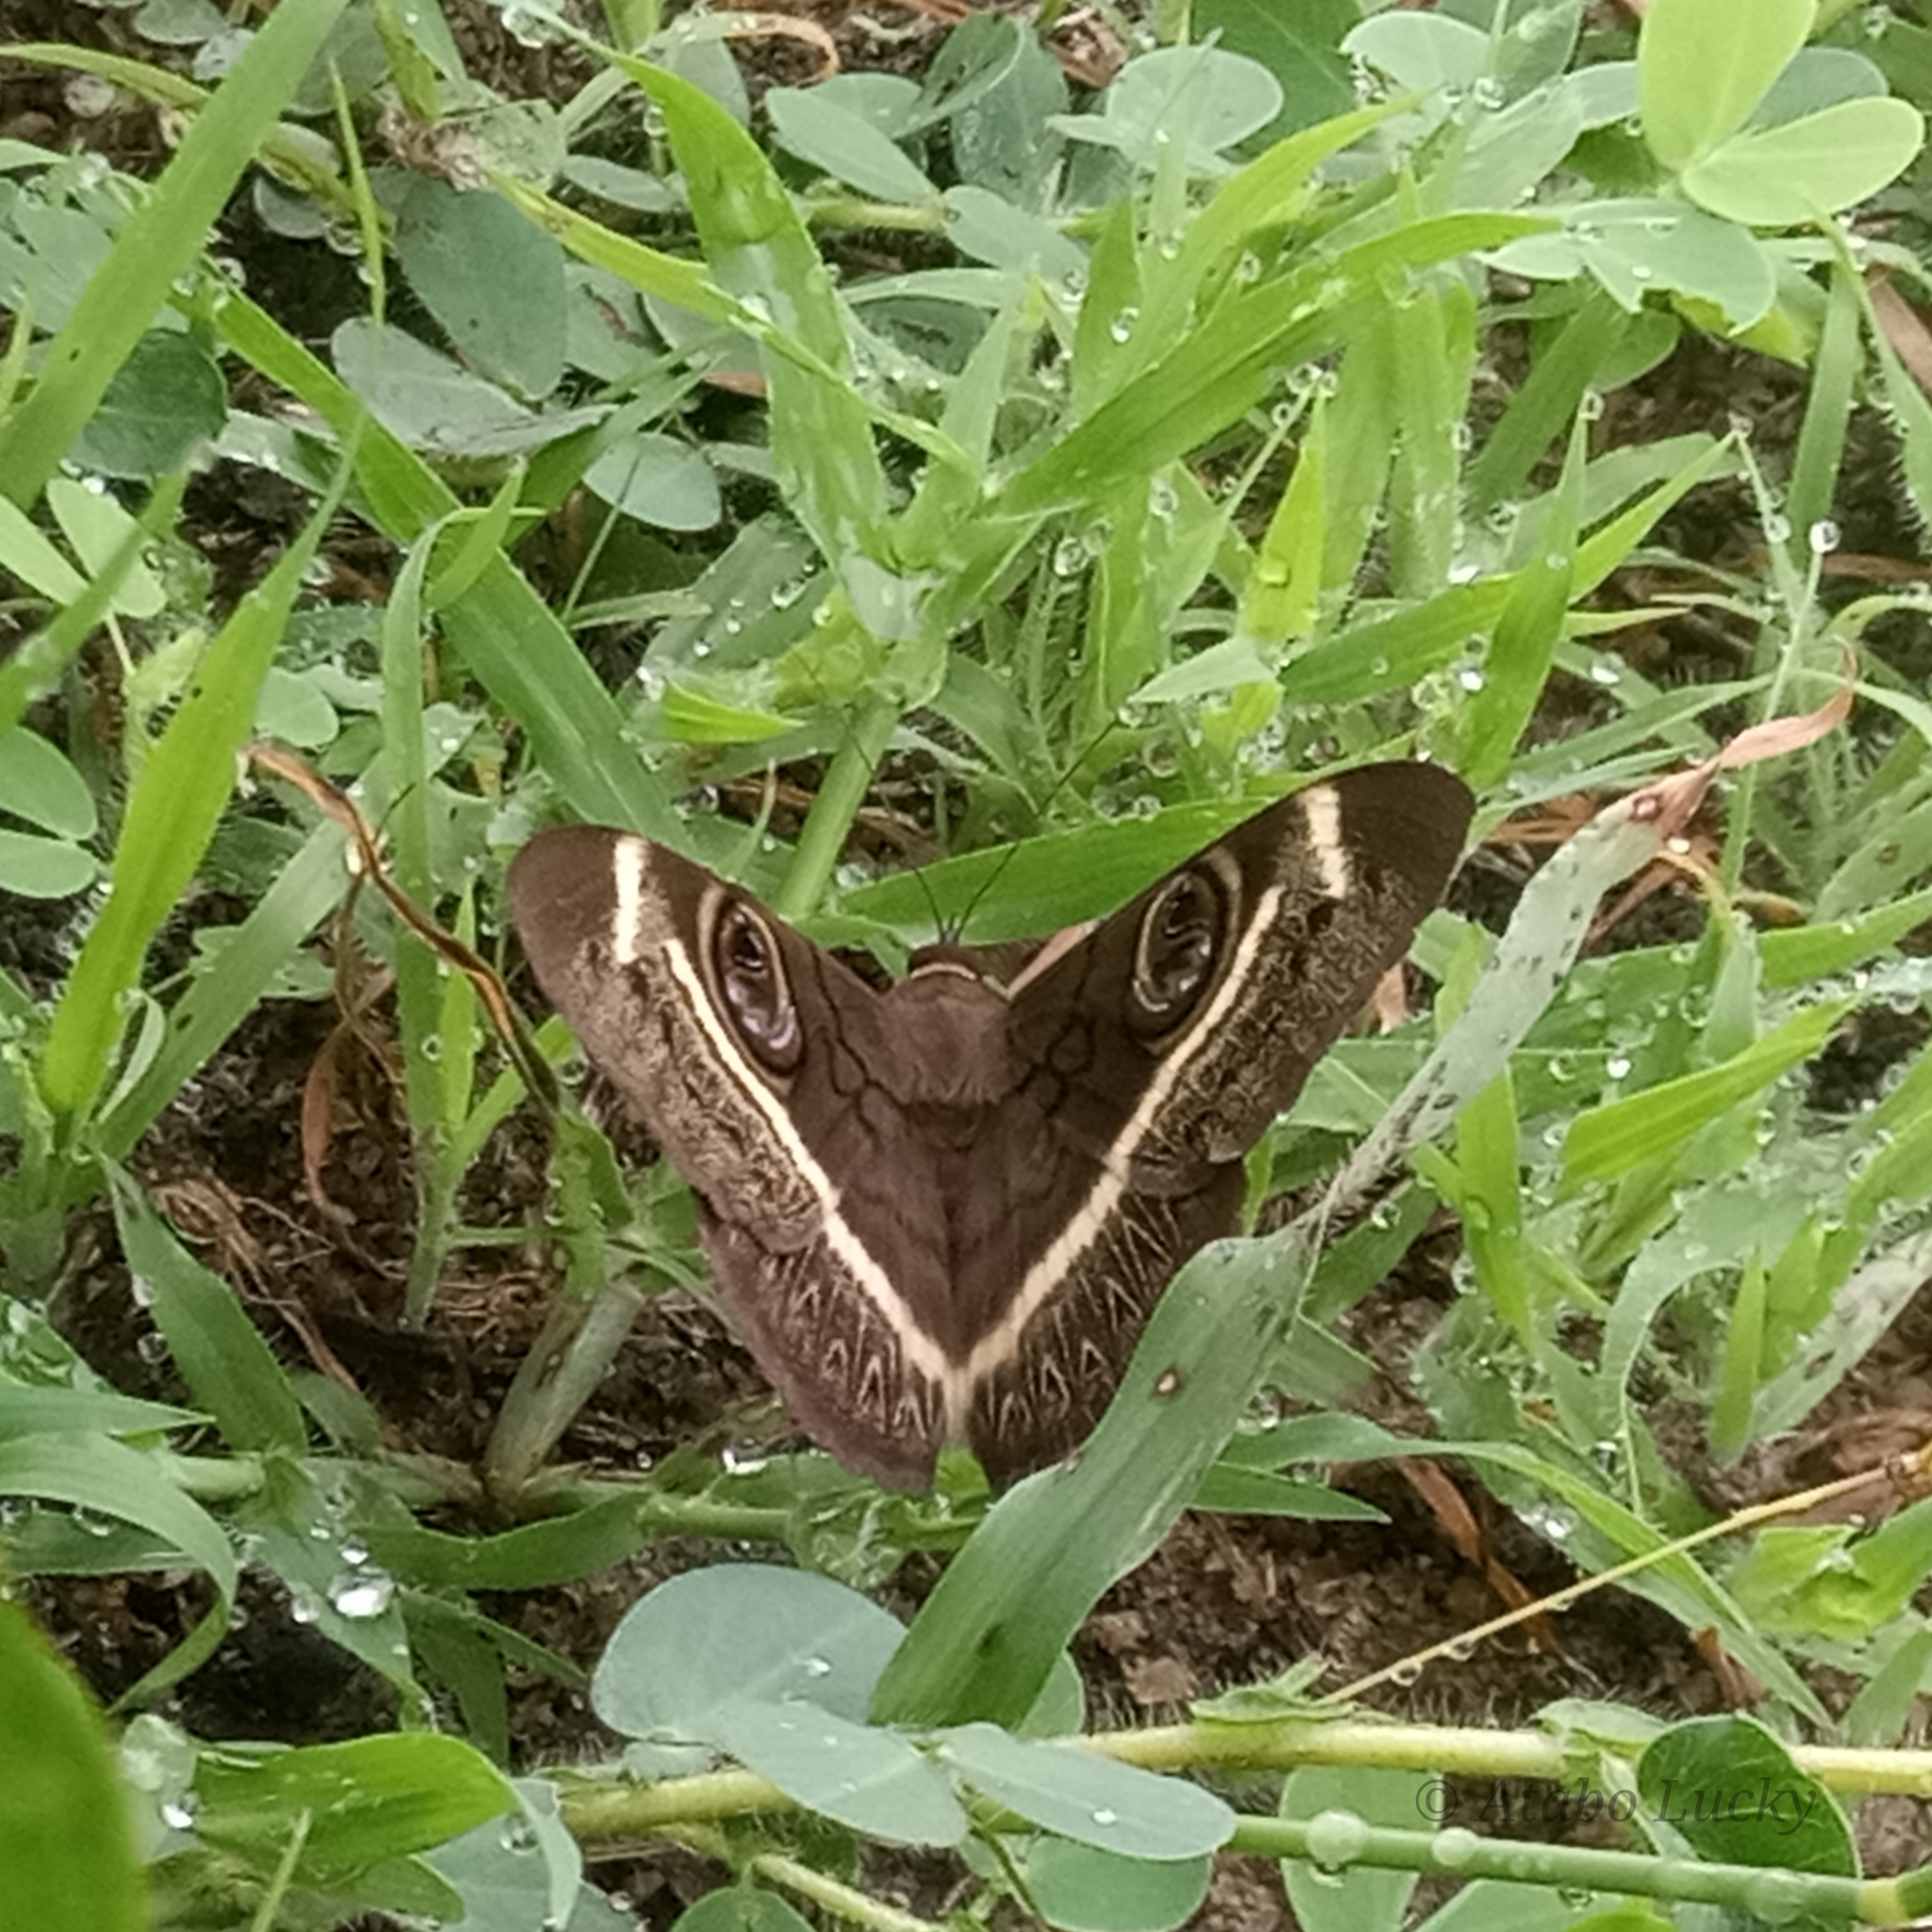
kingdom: Animalia
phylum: Arthropoda
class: Insecta
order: Lepidoptera
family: Erebidae
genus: Cyligramma
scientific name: Cyligramma latona
